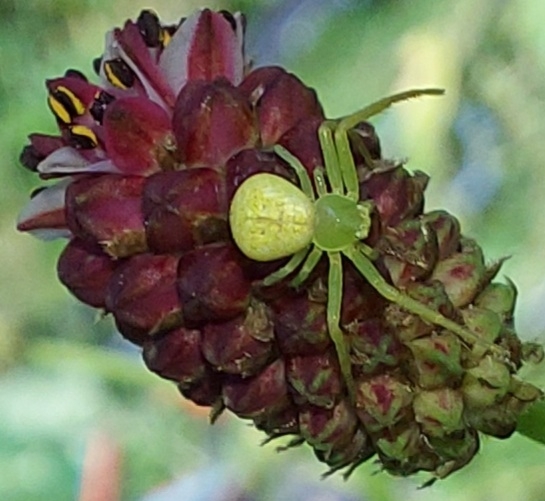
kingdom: Animalia
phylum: Arthropoda
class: Arachnida
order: Araneae
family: Thomisidae
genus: Ebrechtella
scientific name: Ebrechtella tricuspidata
